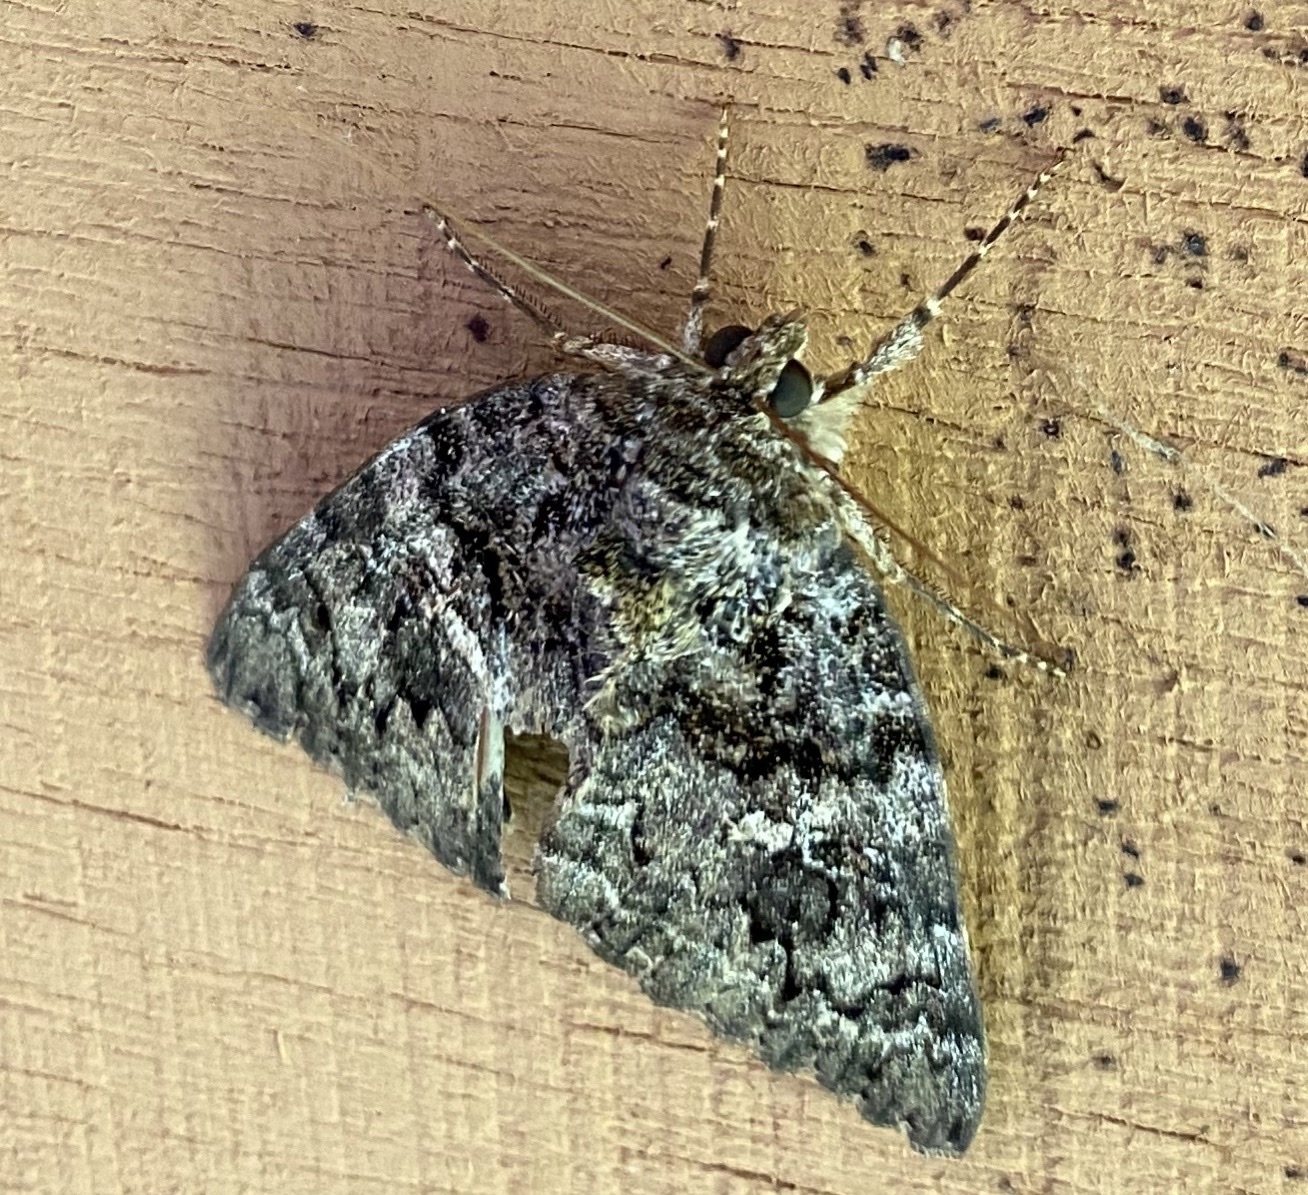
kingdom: Animalia
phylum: Arthropoda
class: Insecta
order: Lepidoptera
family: Erebidae
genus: Catocala
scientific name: Catocala ilia
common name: Ilia underwing
